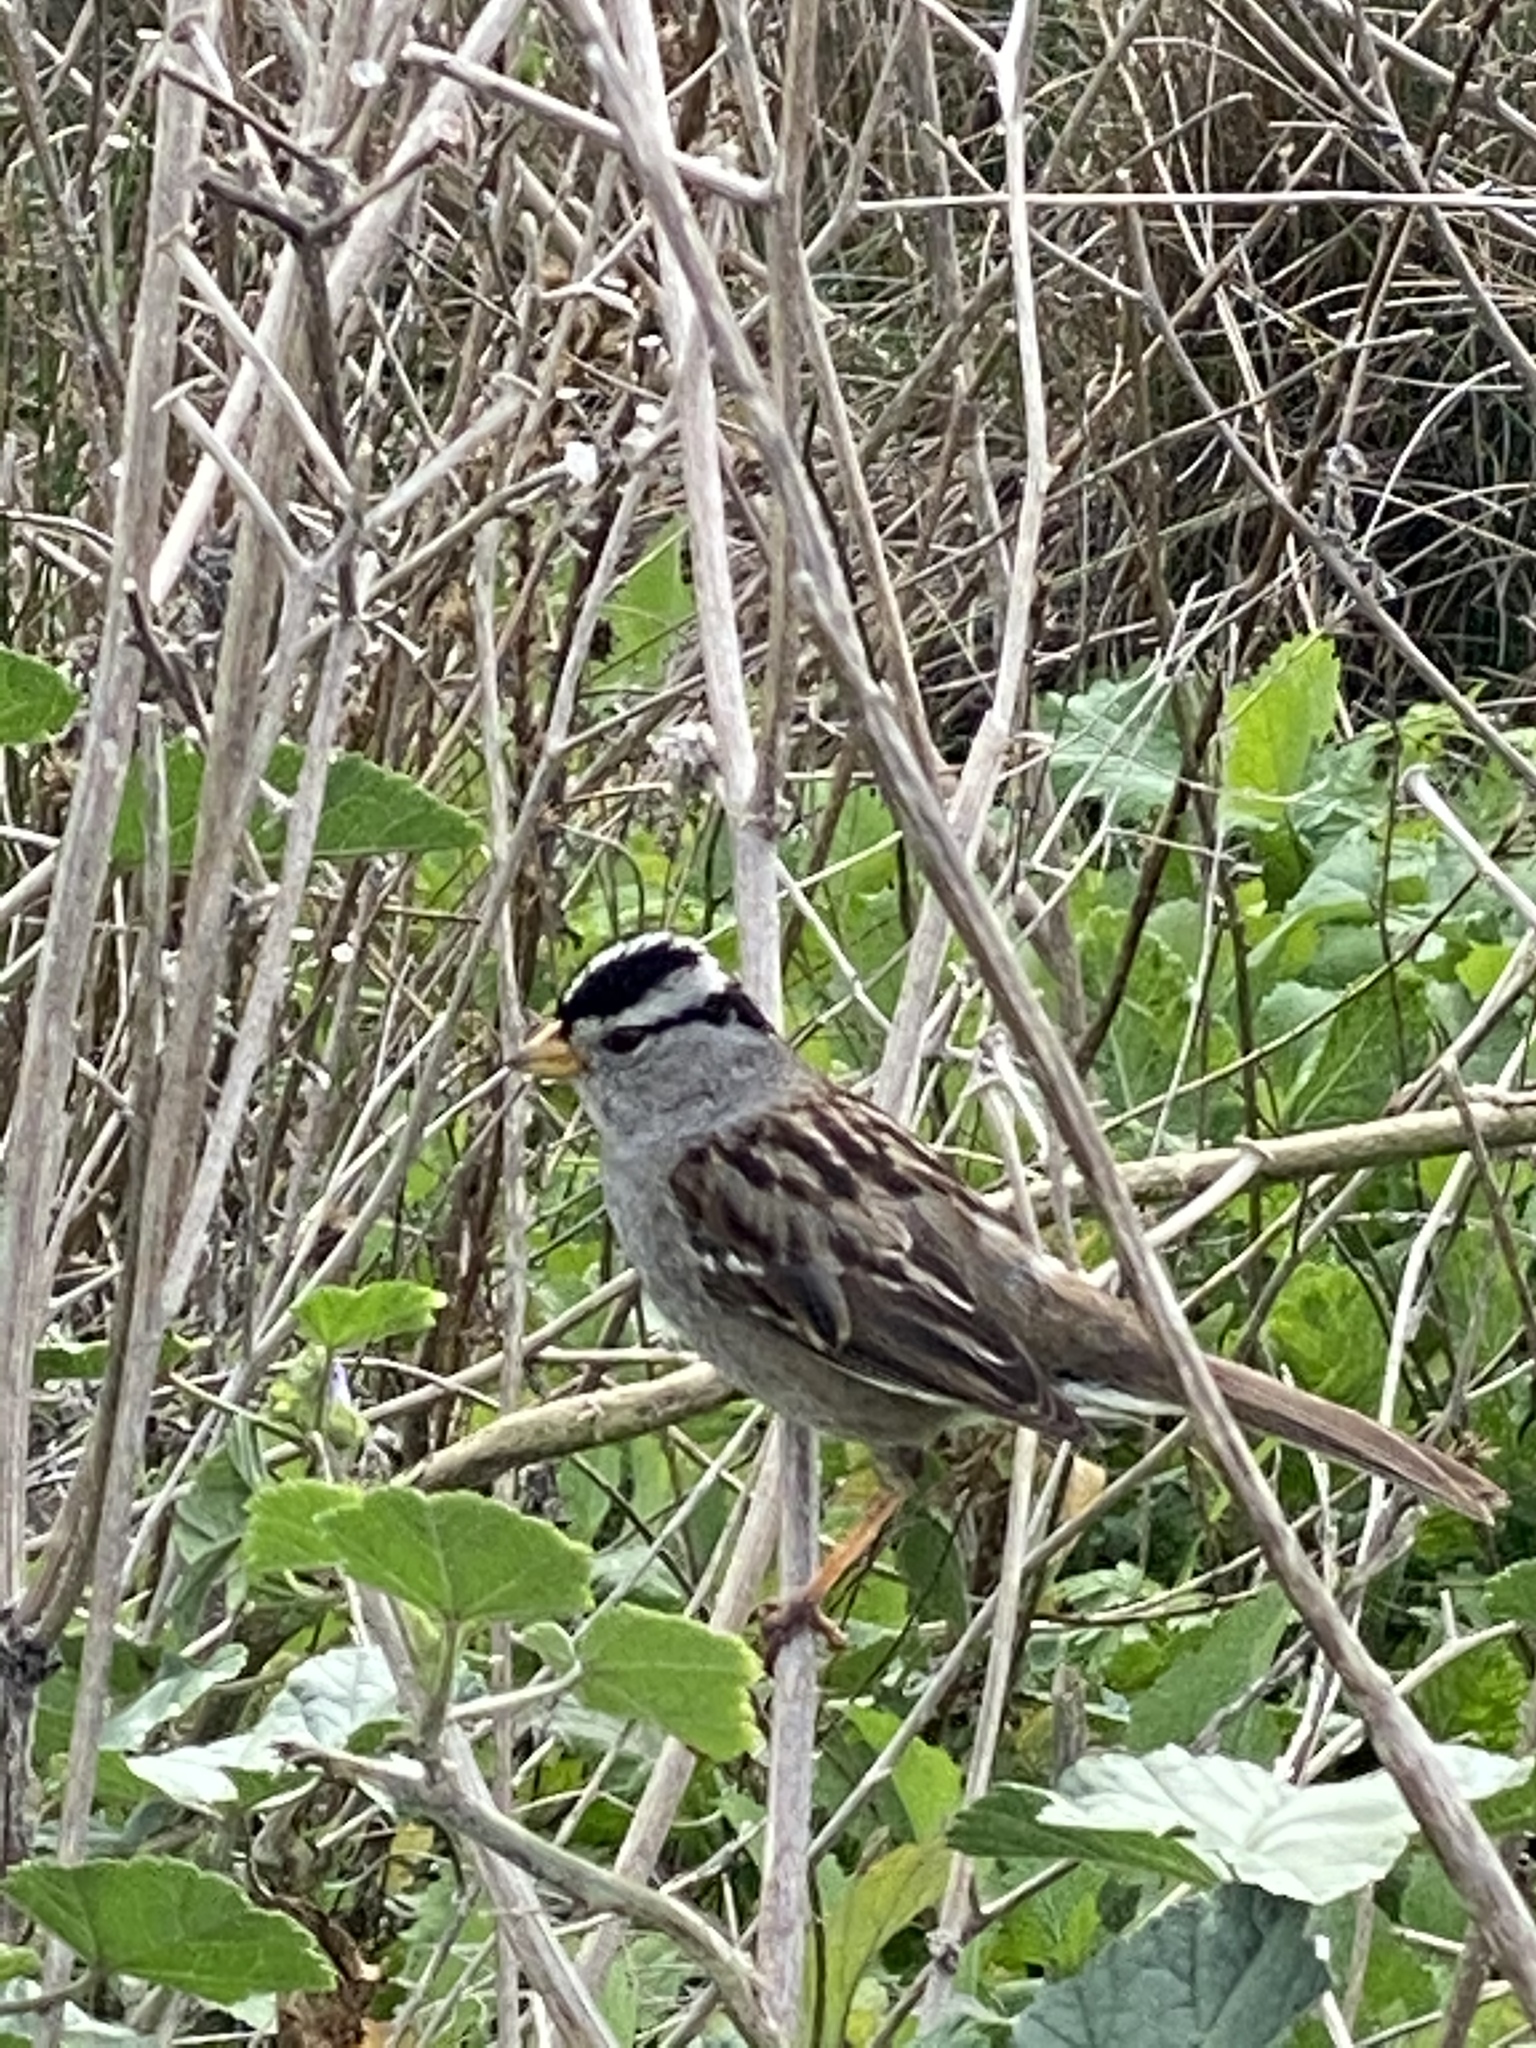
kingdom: Animalia
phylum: Chordata
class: Aves
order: Passeriformes
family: Passerellidae
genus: Zonotrichia
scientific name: Zonotrichia leucophrys
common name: White-crowned sparrow
